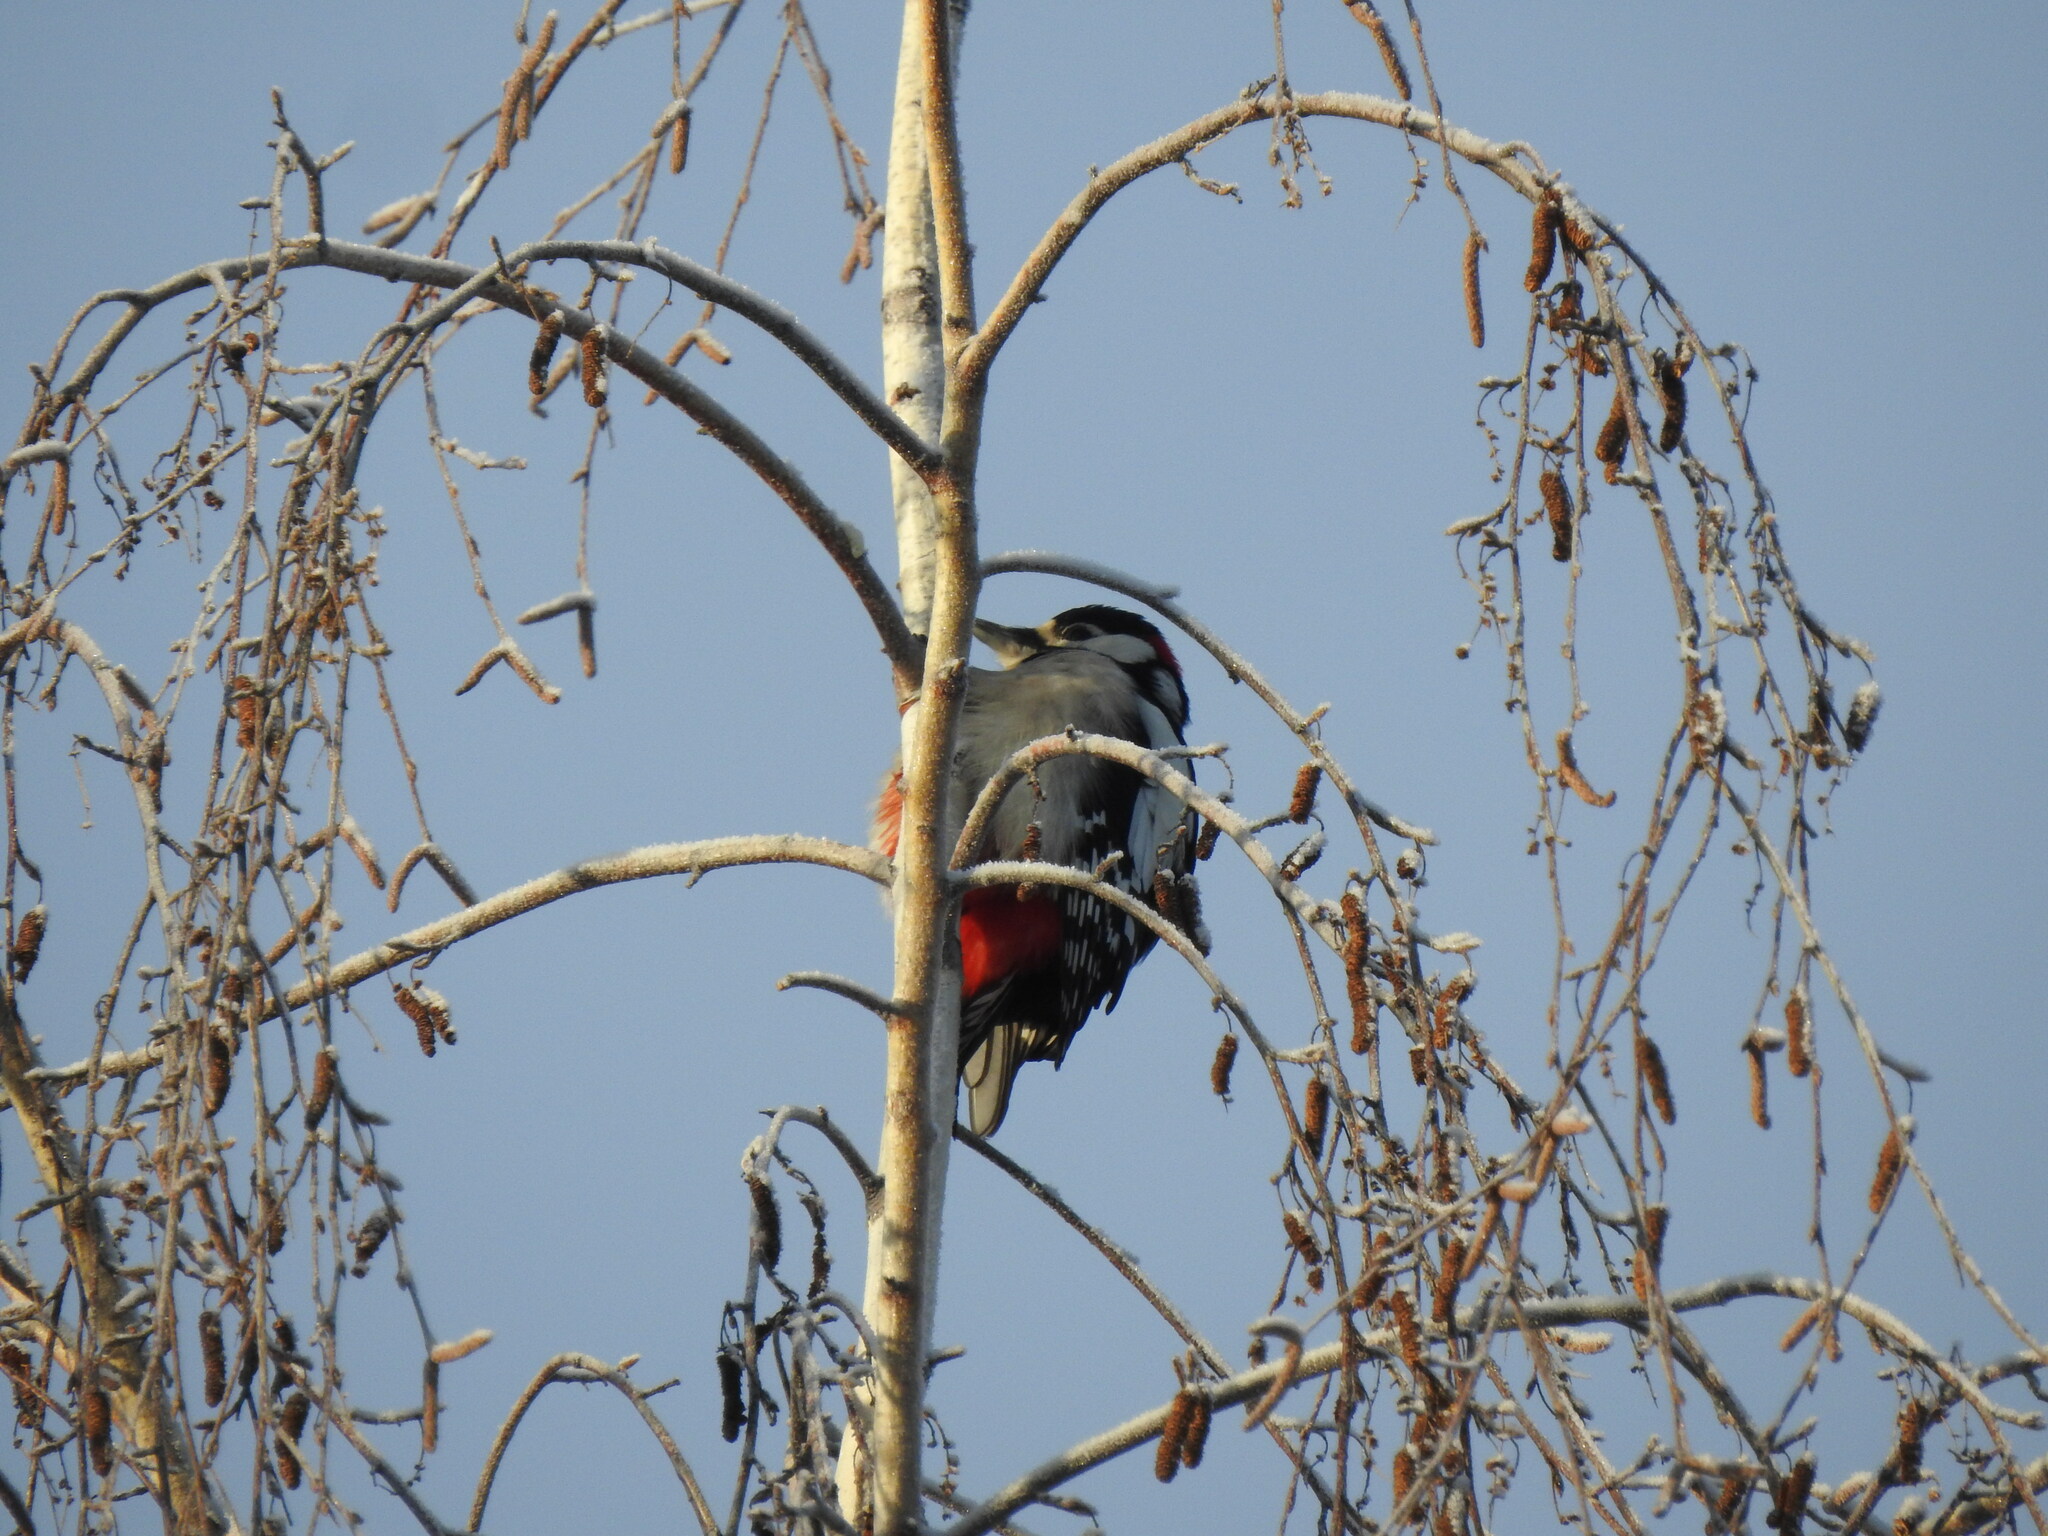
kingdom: Animalia
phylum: Chordata
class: Aves
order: Piciformes
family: Picidae
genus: Dendrocopos
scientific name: Dendrocopos major
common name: Great spotted woodpecker
